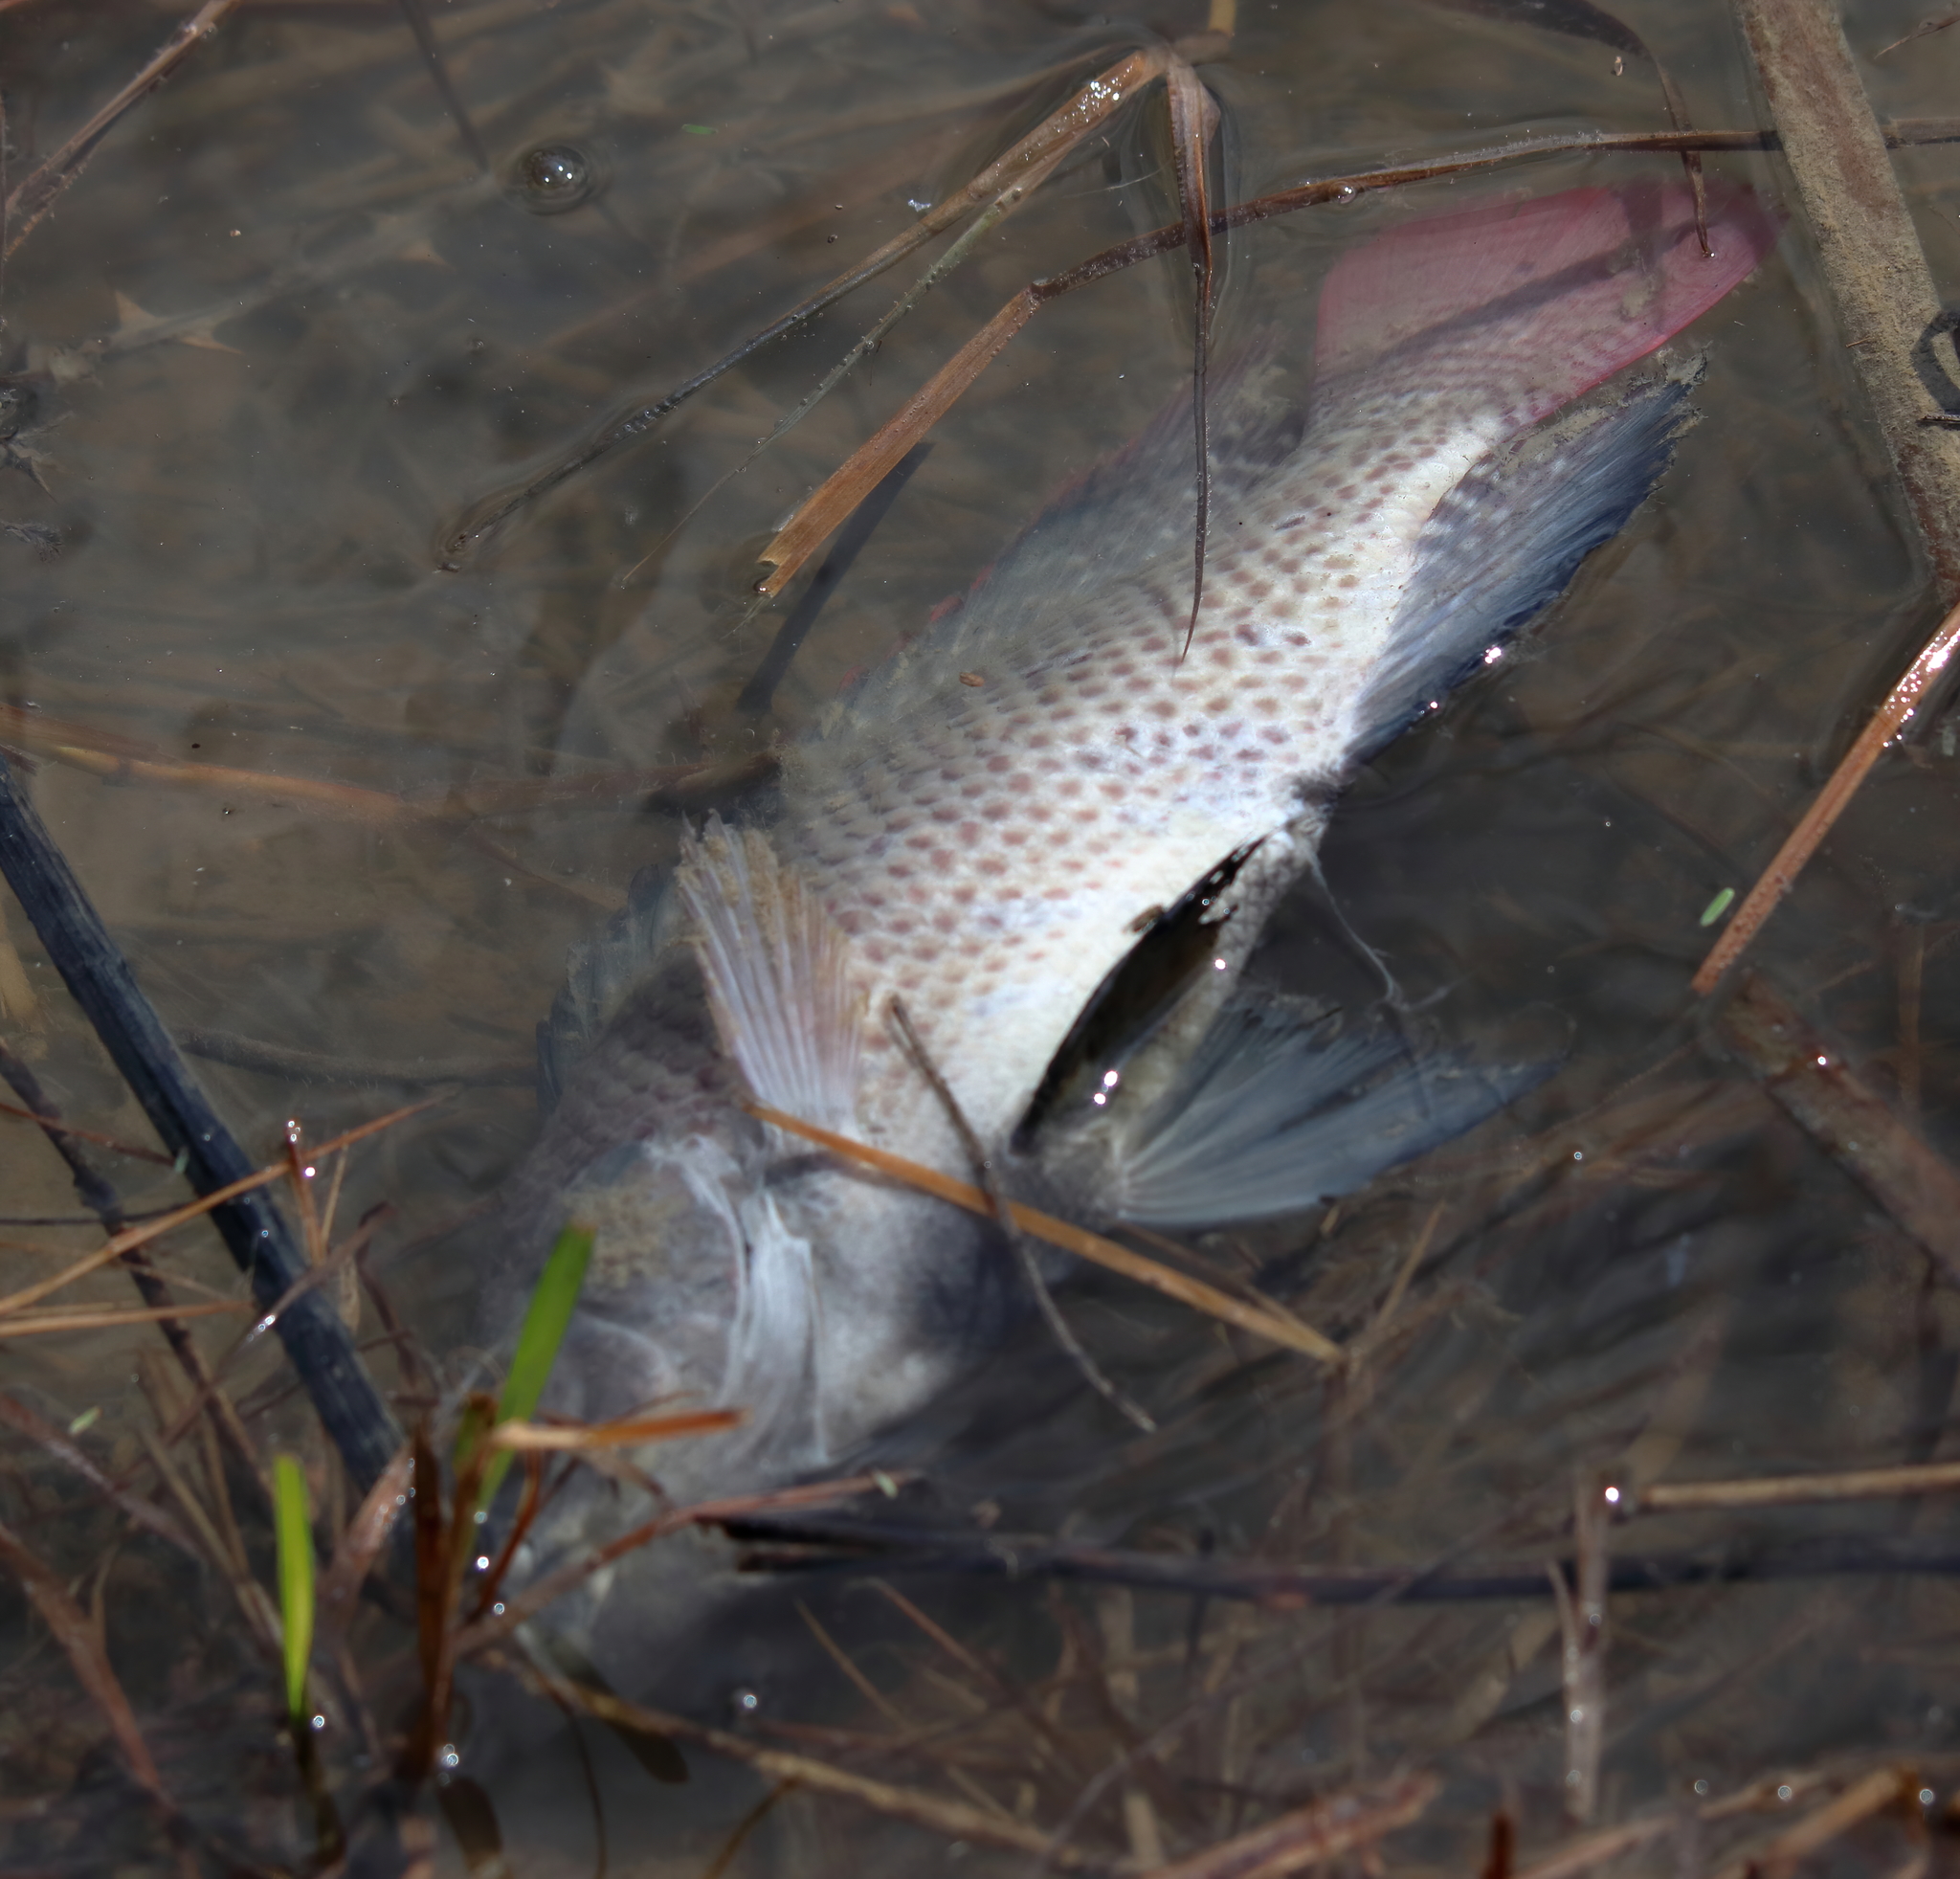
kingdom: Animalia
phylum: Chordata
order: Perciformes
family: Cichlidae
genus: Oreochromis
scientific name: Oreochromis aureus
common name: Blue tilapia
